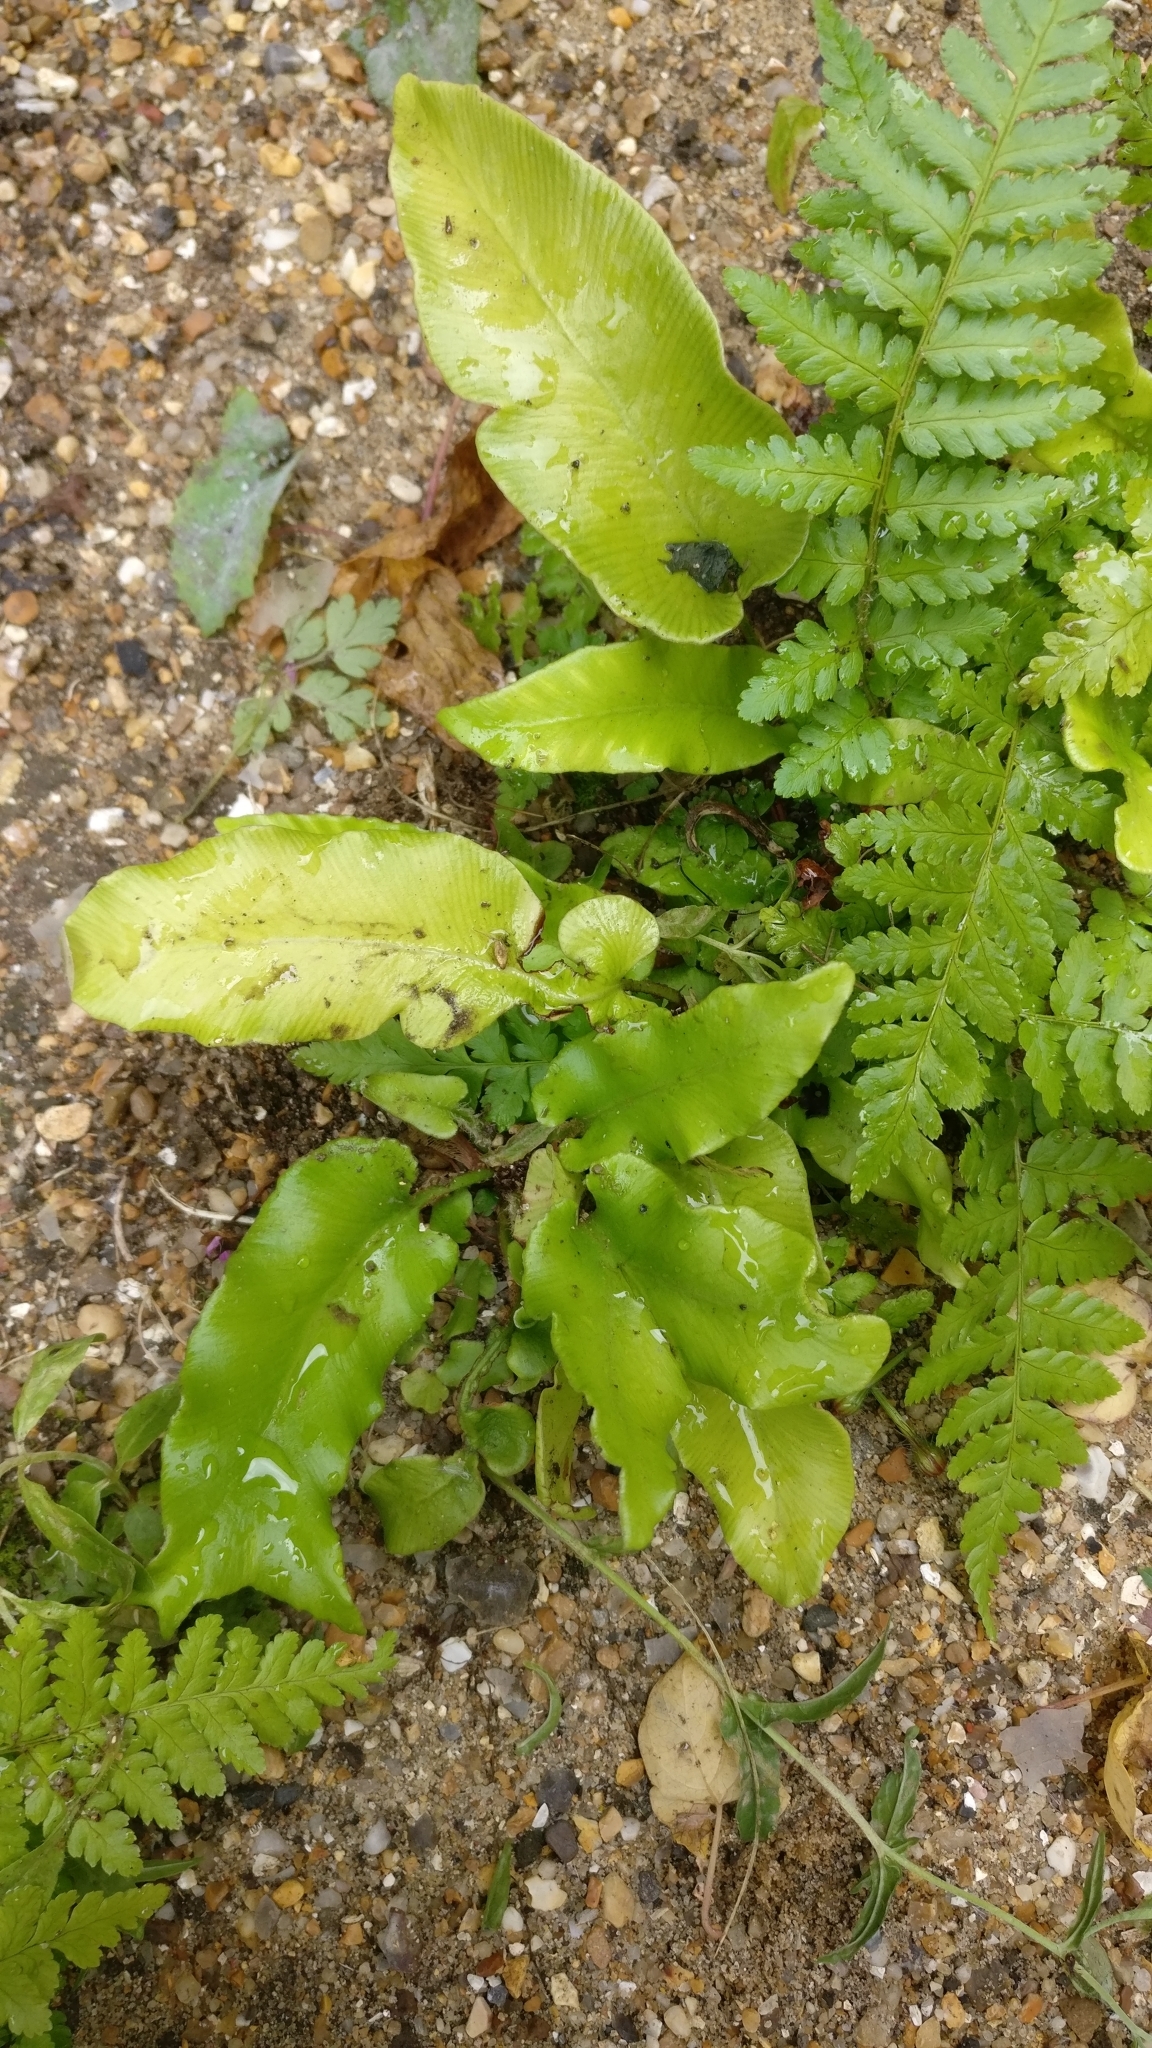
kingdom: Plantae
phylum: Tracheophyta
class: Polypodiopsida
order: Polypodiales
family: Aspleniaceae
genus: Asplenium
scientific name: Asplenium scolopendrium
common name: Hart's-tongue fern
